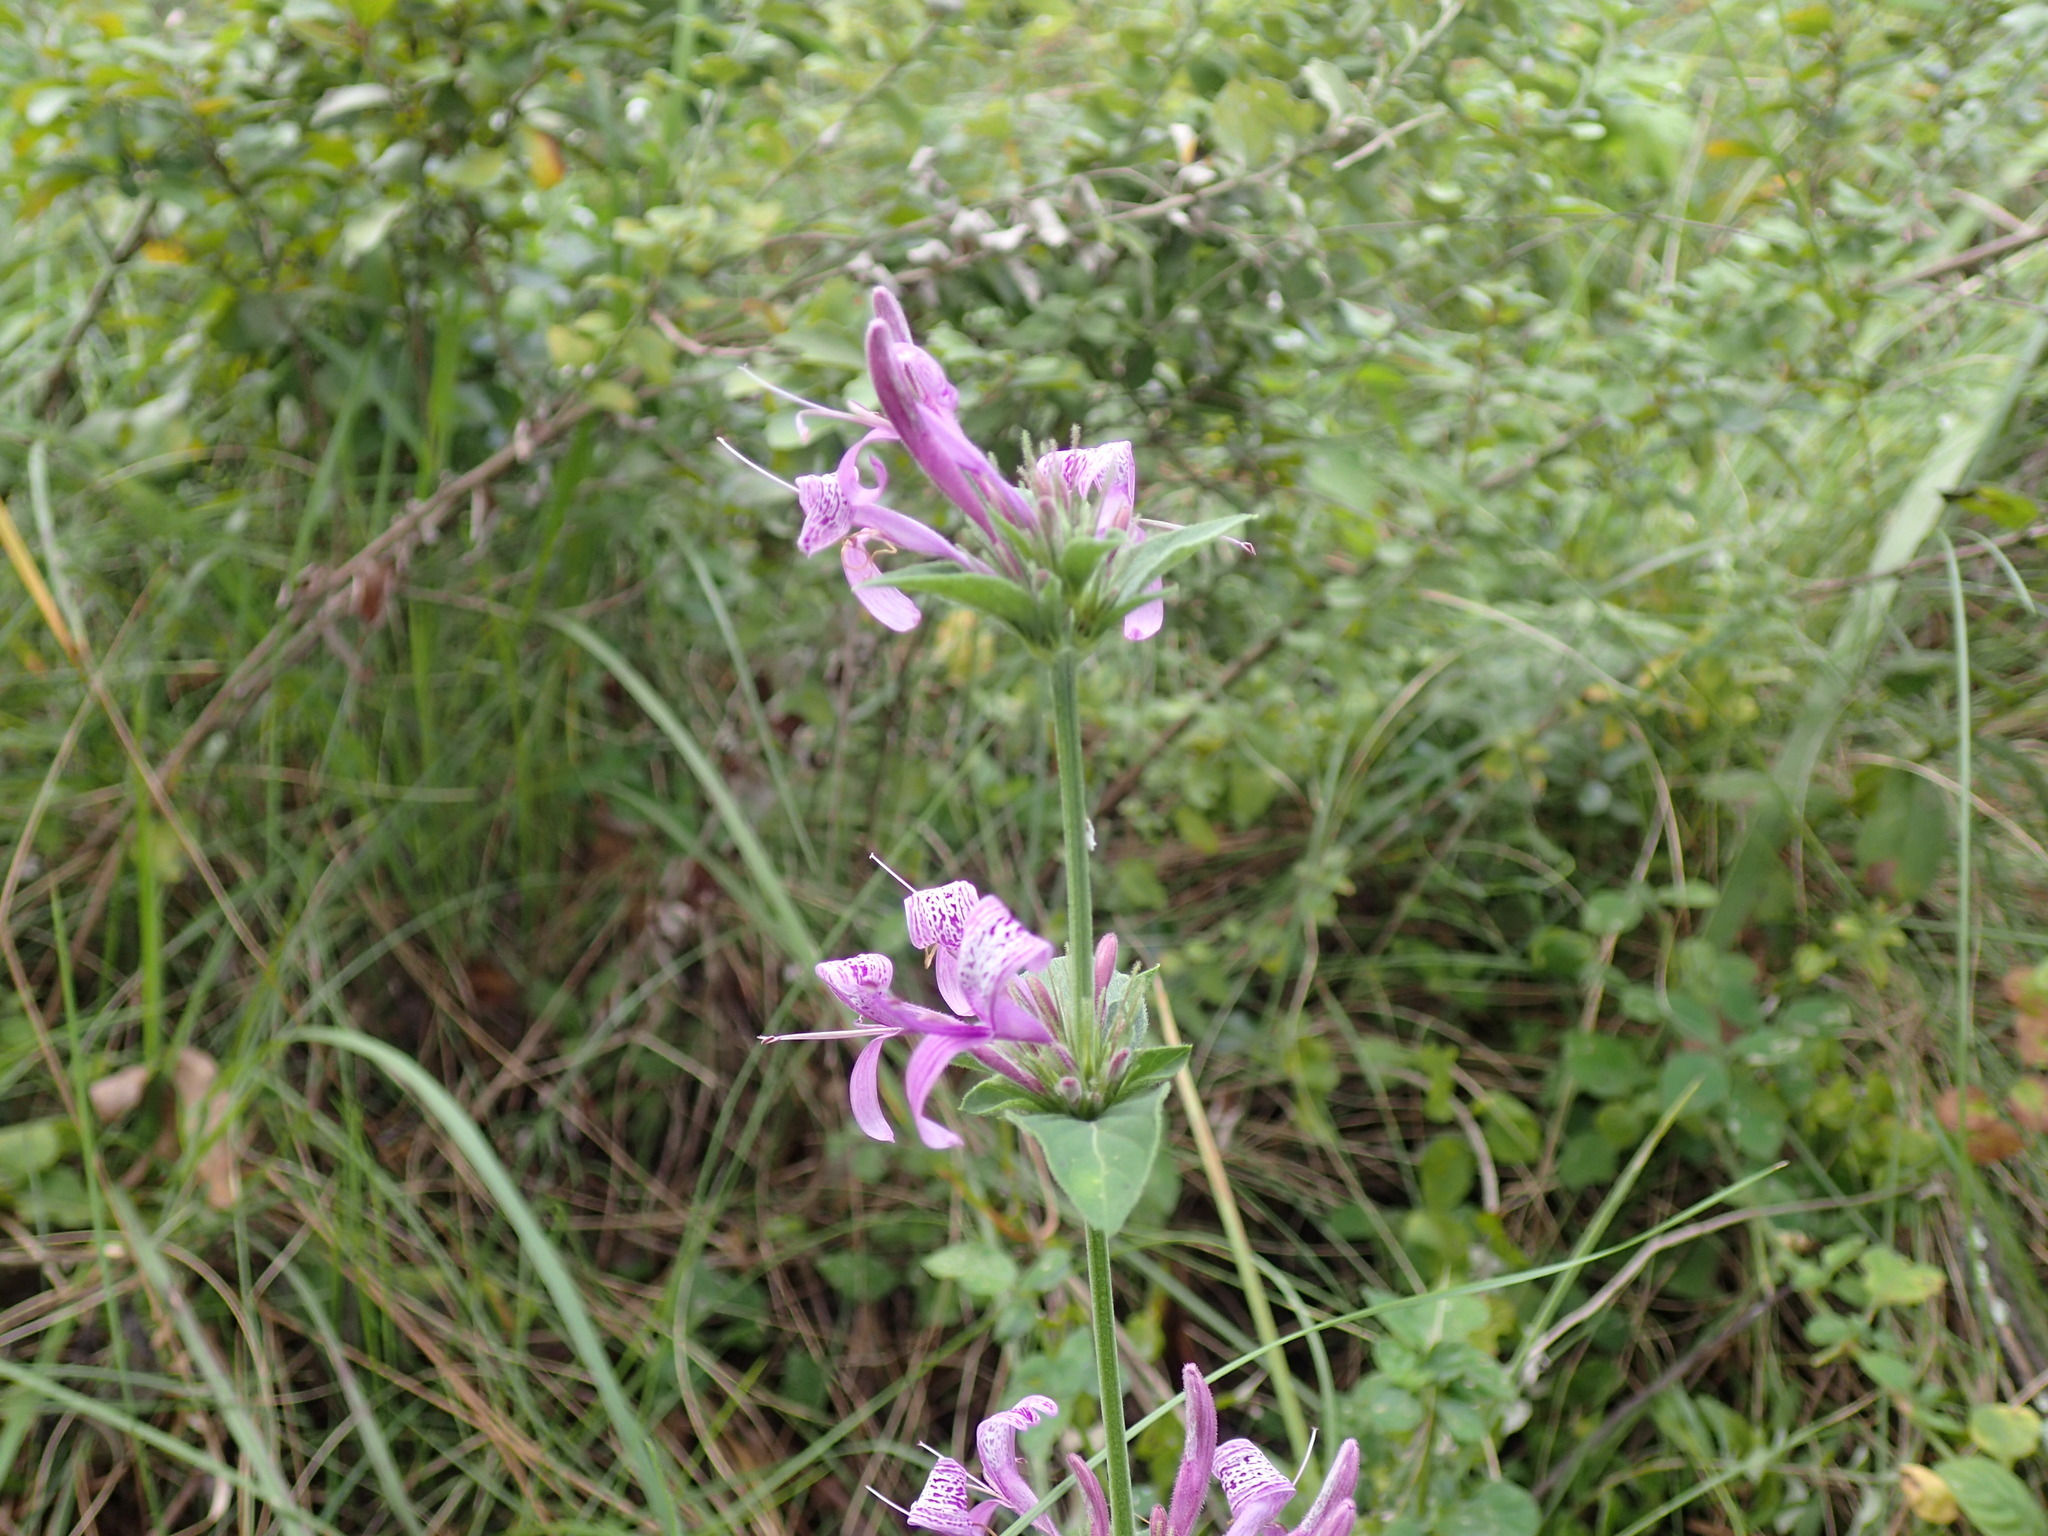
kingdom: Plantae
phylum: Tracheophyta
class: Magnoliopsida
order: Lamiales
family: Acanthaceae
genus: Hypoestes
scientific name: Hypoestes aristata
